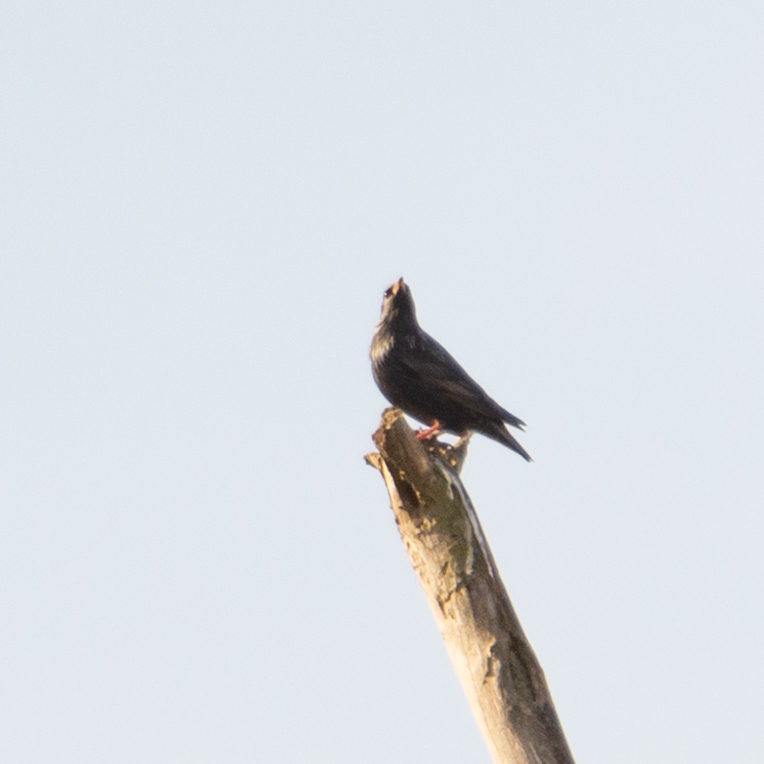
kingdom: Animalia
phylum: Chordata
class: Aves
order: Passeriformes
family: Sturnidae
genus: Sturnus
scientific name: Sturnus unicolor
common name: Spotless starling
